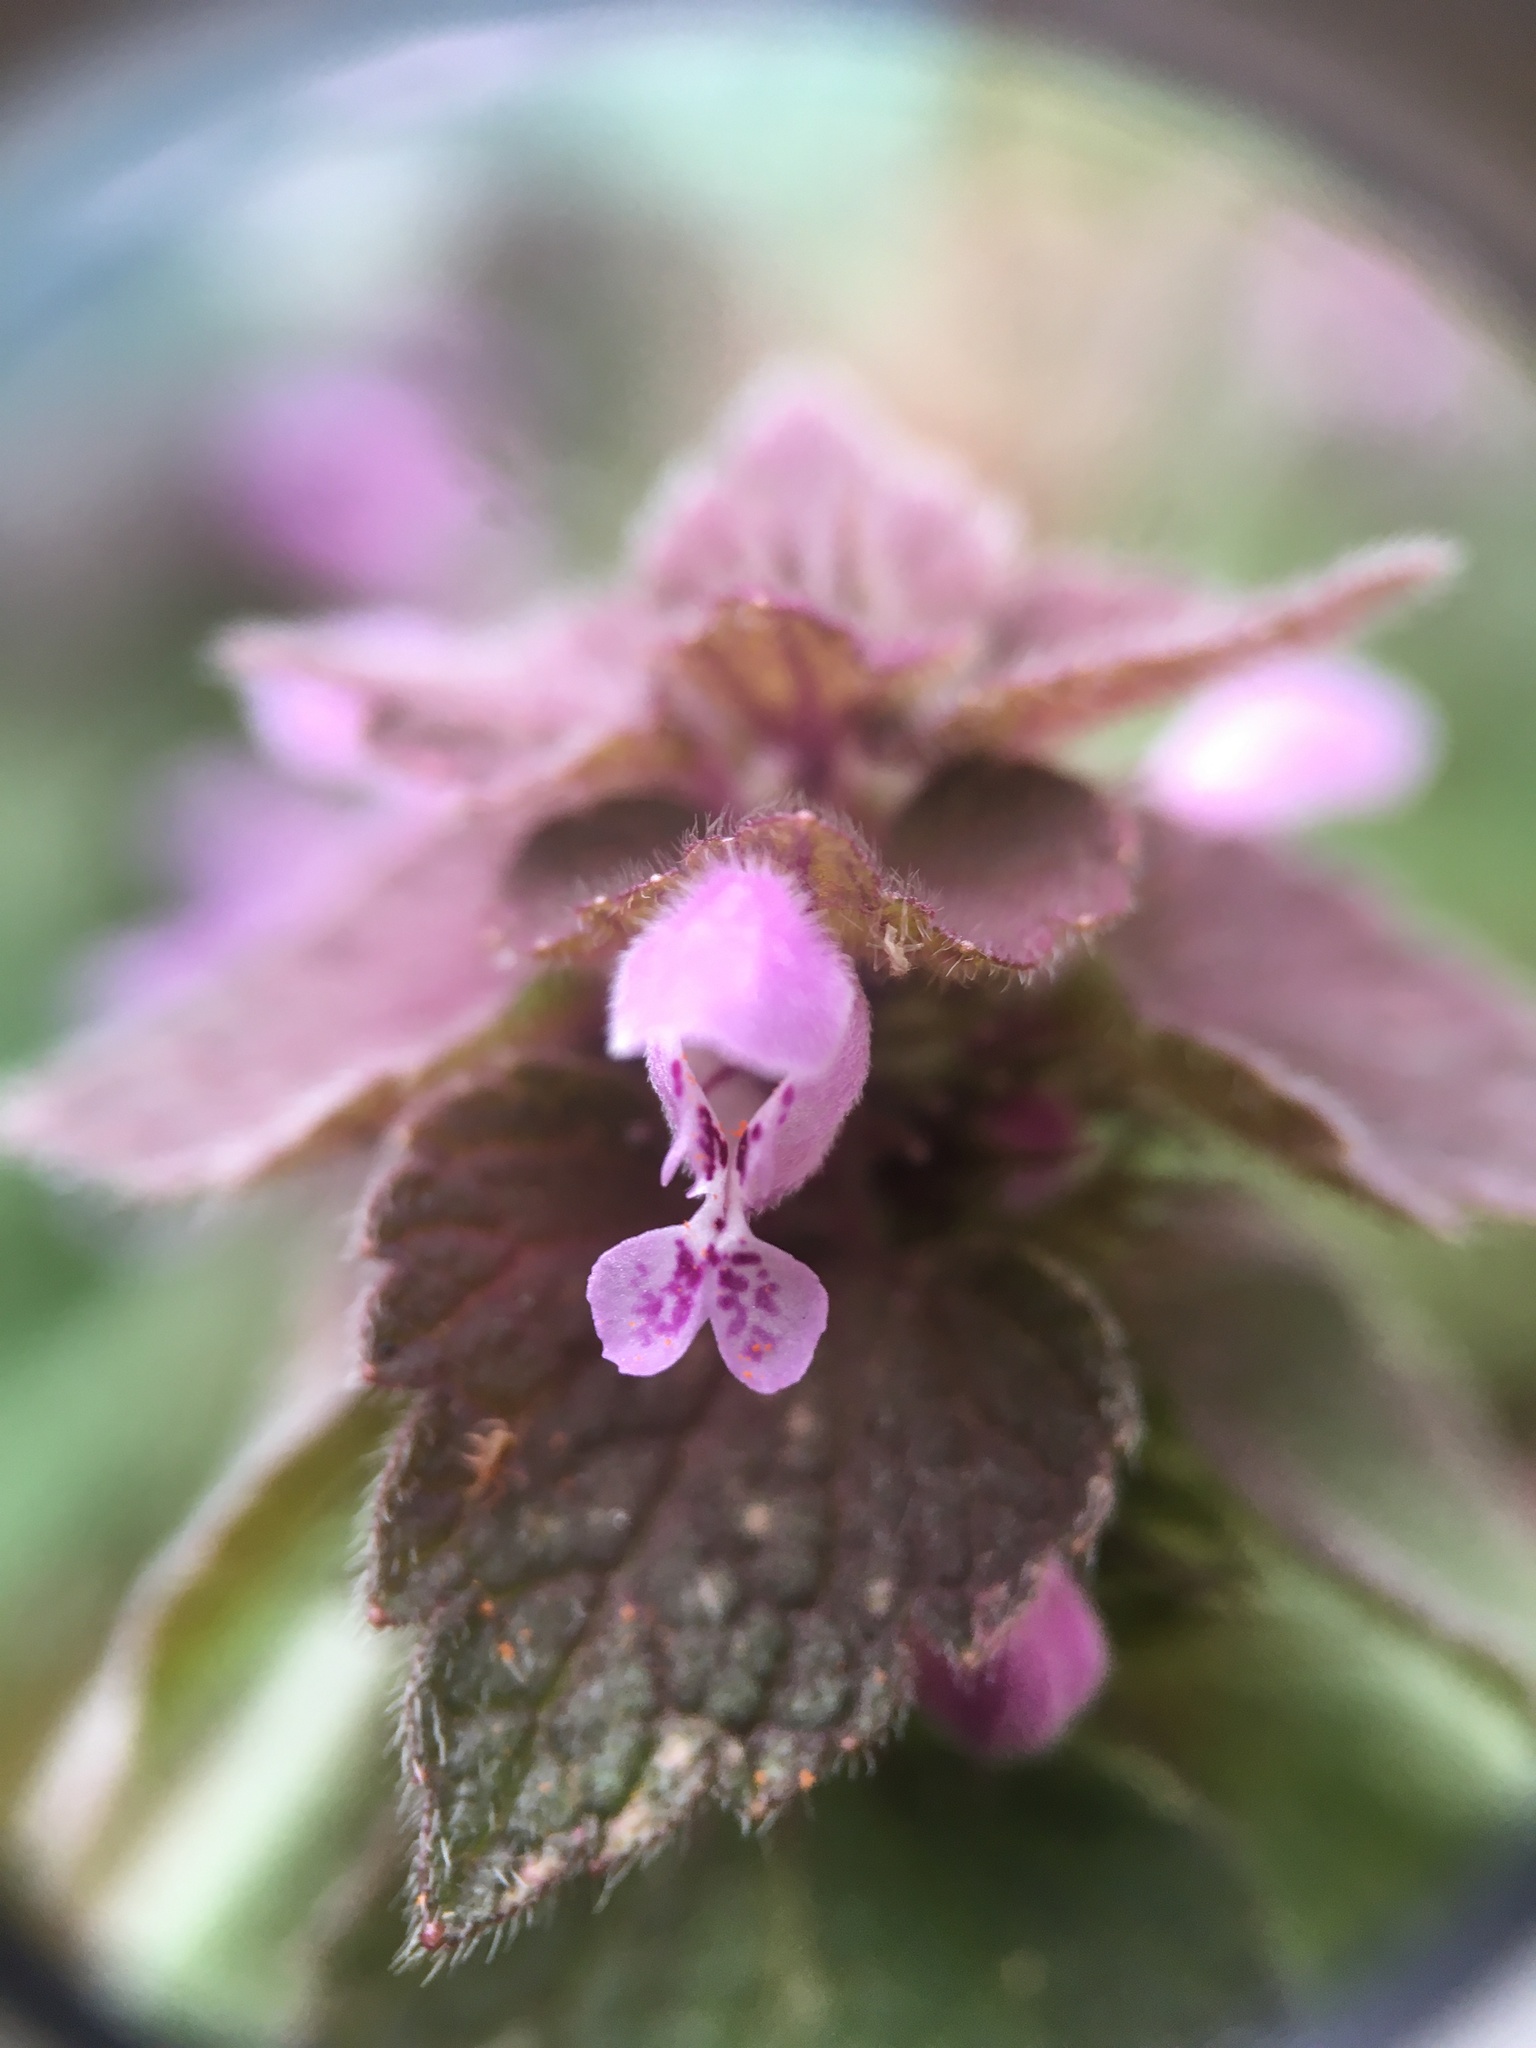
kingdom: Plantae
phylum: Tracheophyta
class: Magnoliopsida
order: Lamiales
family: Lamiaceae
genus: Lamium
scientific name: Lamium purpureum
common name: Red dead-nettle
